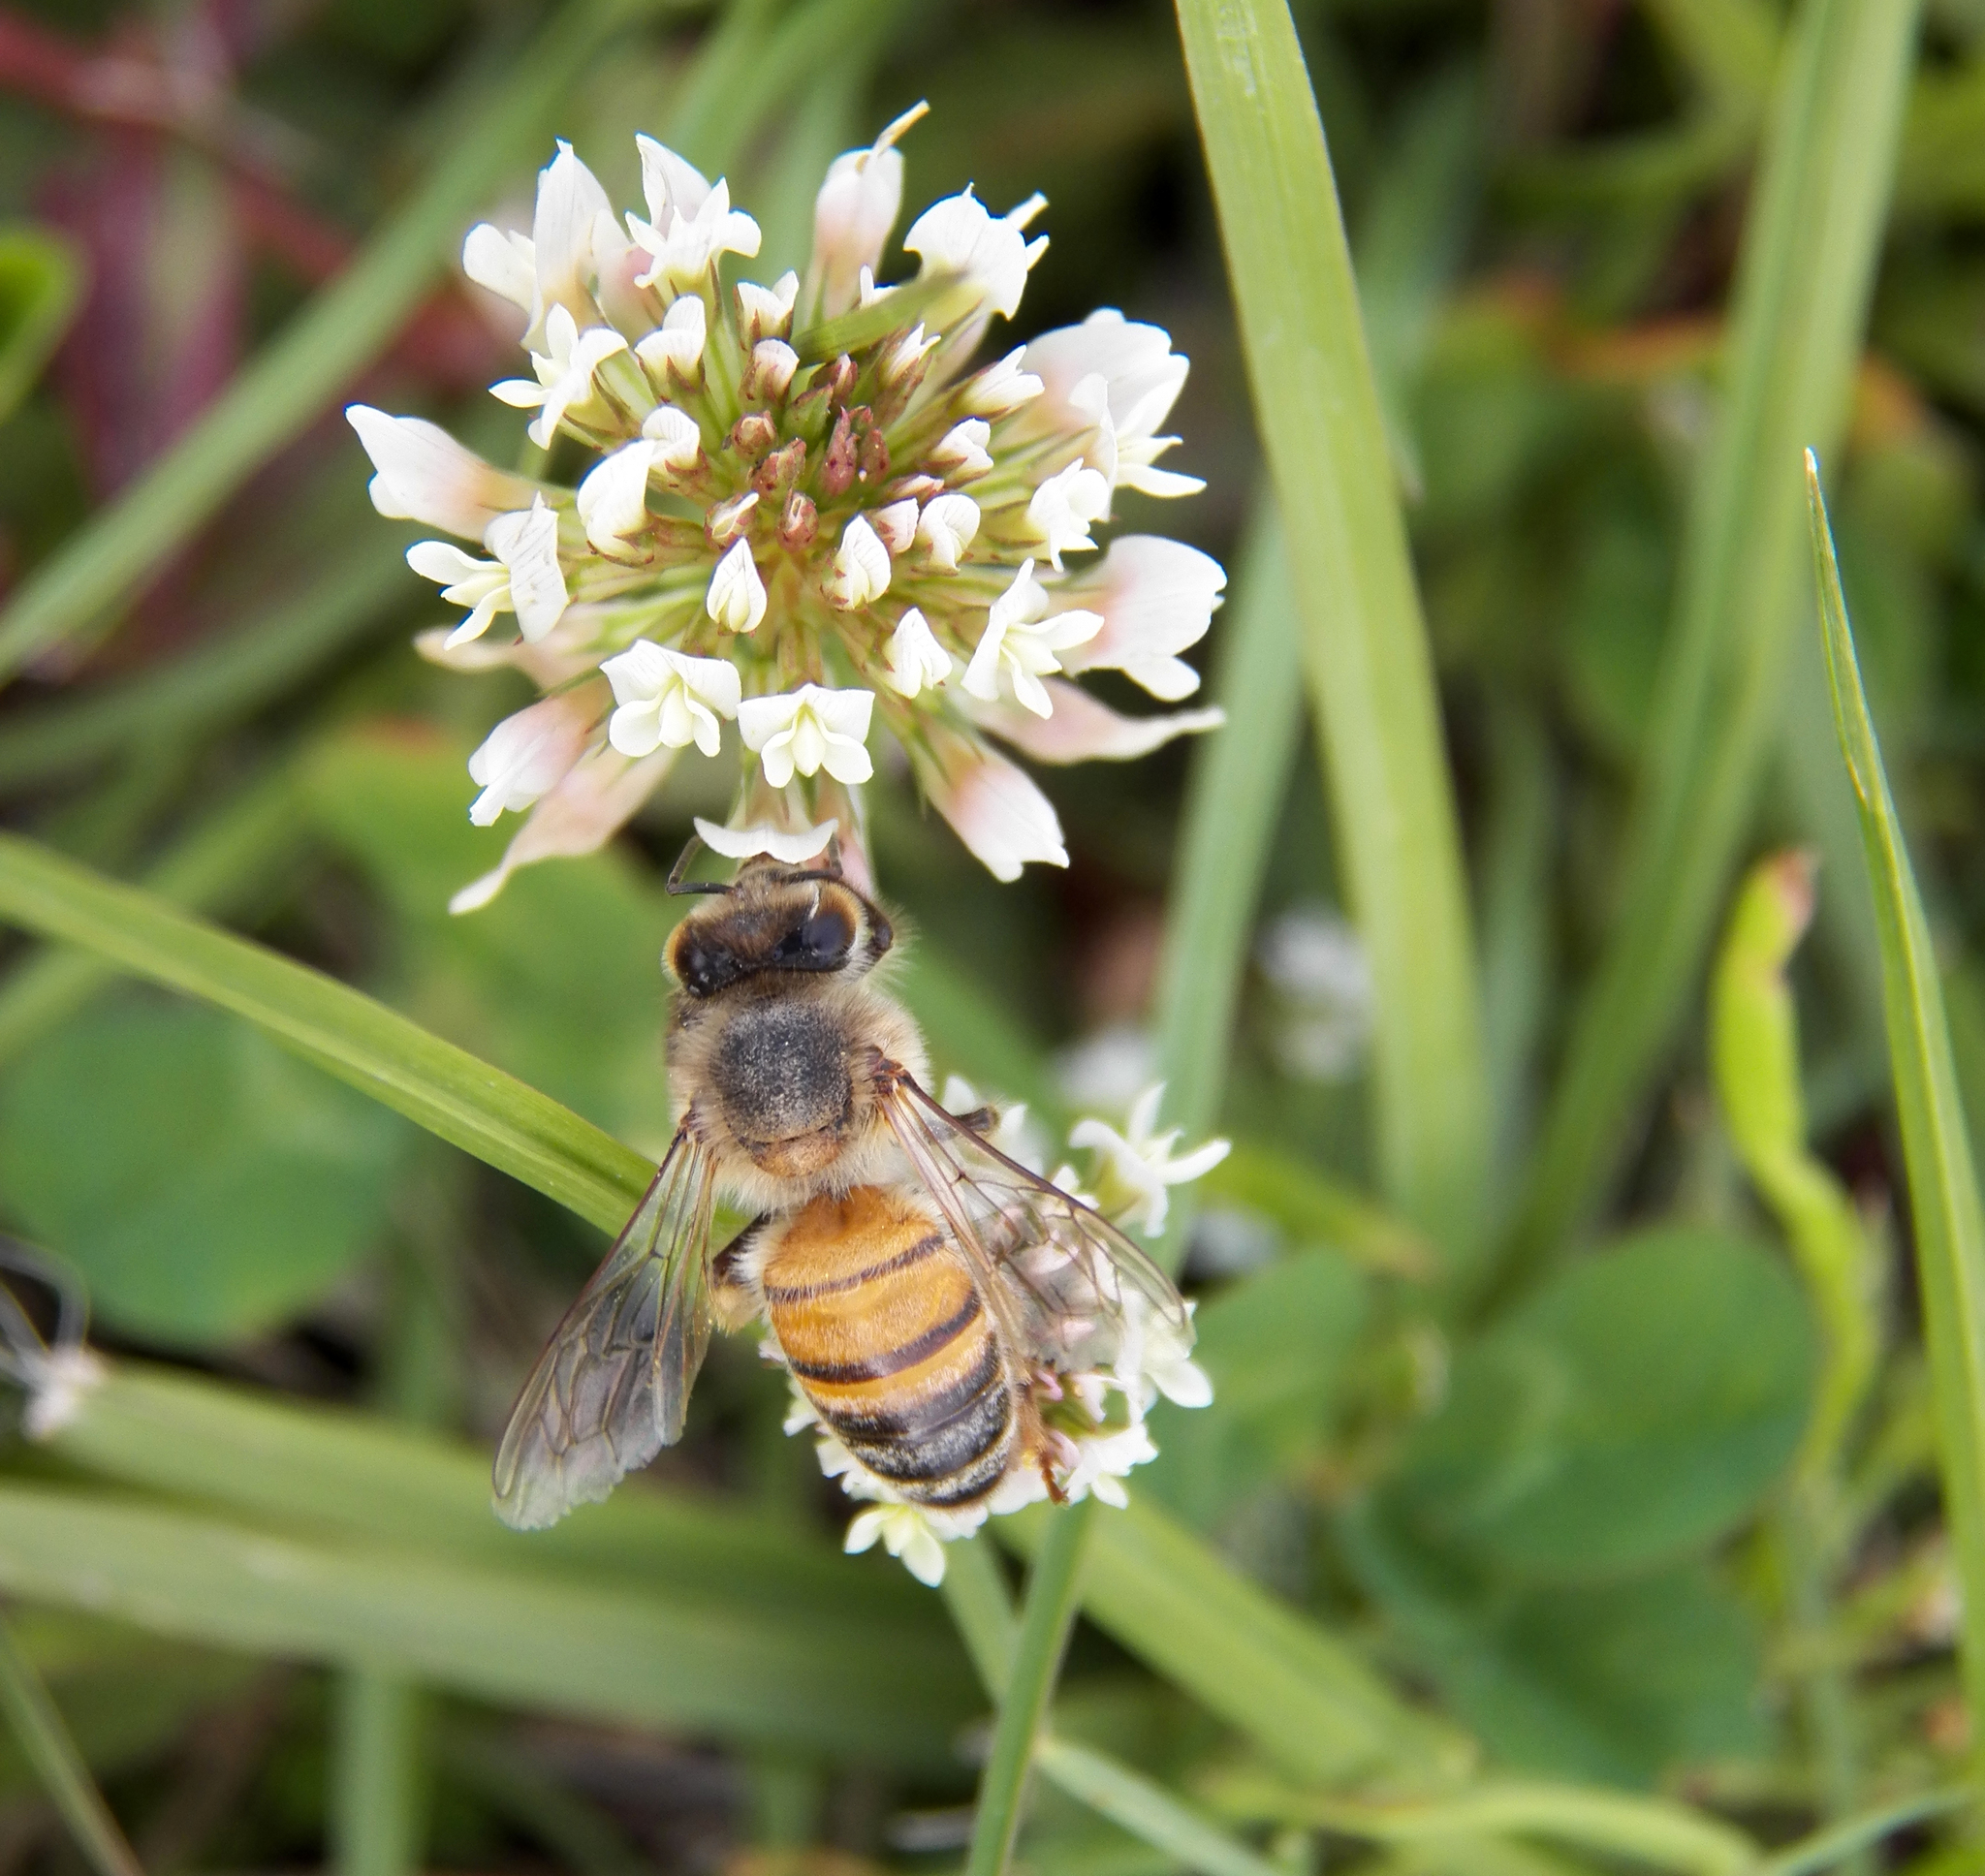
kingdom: Plantae
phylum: Tracheophyta
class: Magnoliopsida
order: Fabales
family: Fabaceae
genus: Trifolium
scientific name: Trifolium repens
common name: White clover
